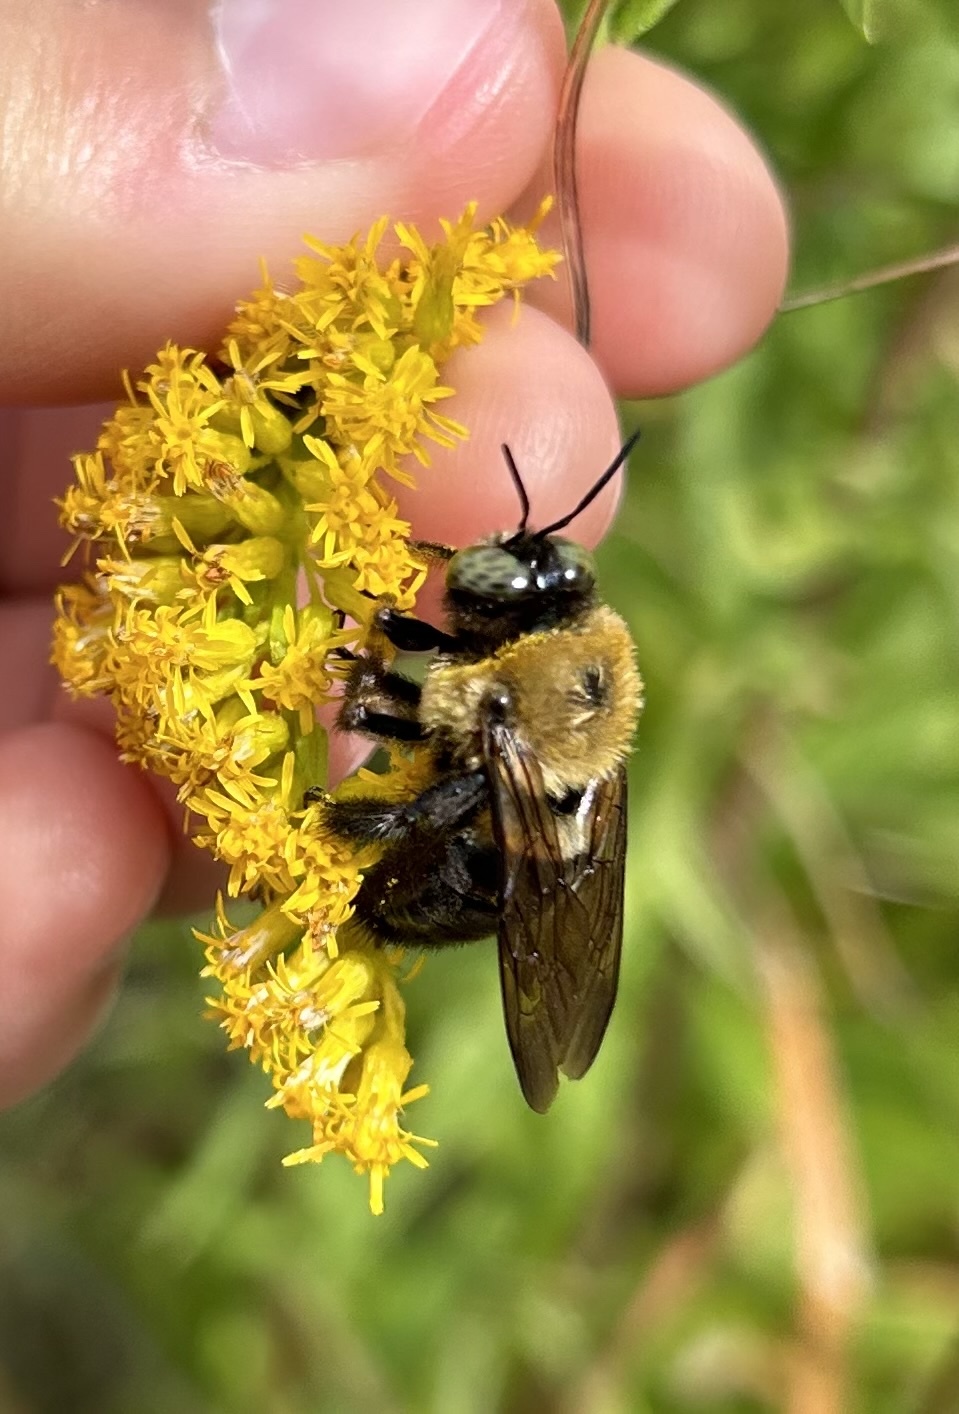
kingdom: Animalia
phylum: Arthropoda
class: Insecta
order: Hymenoptera
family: Apidae
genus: Xylocopa
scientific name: Xylocopa virginica
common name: Carpenter bee
